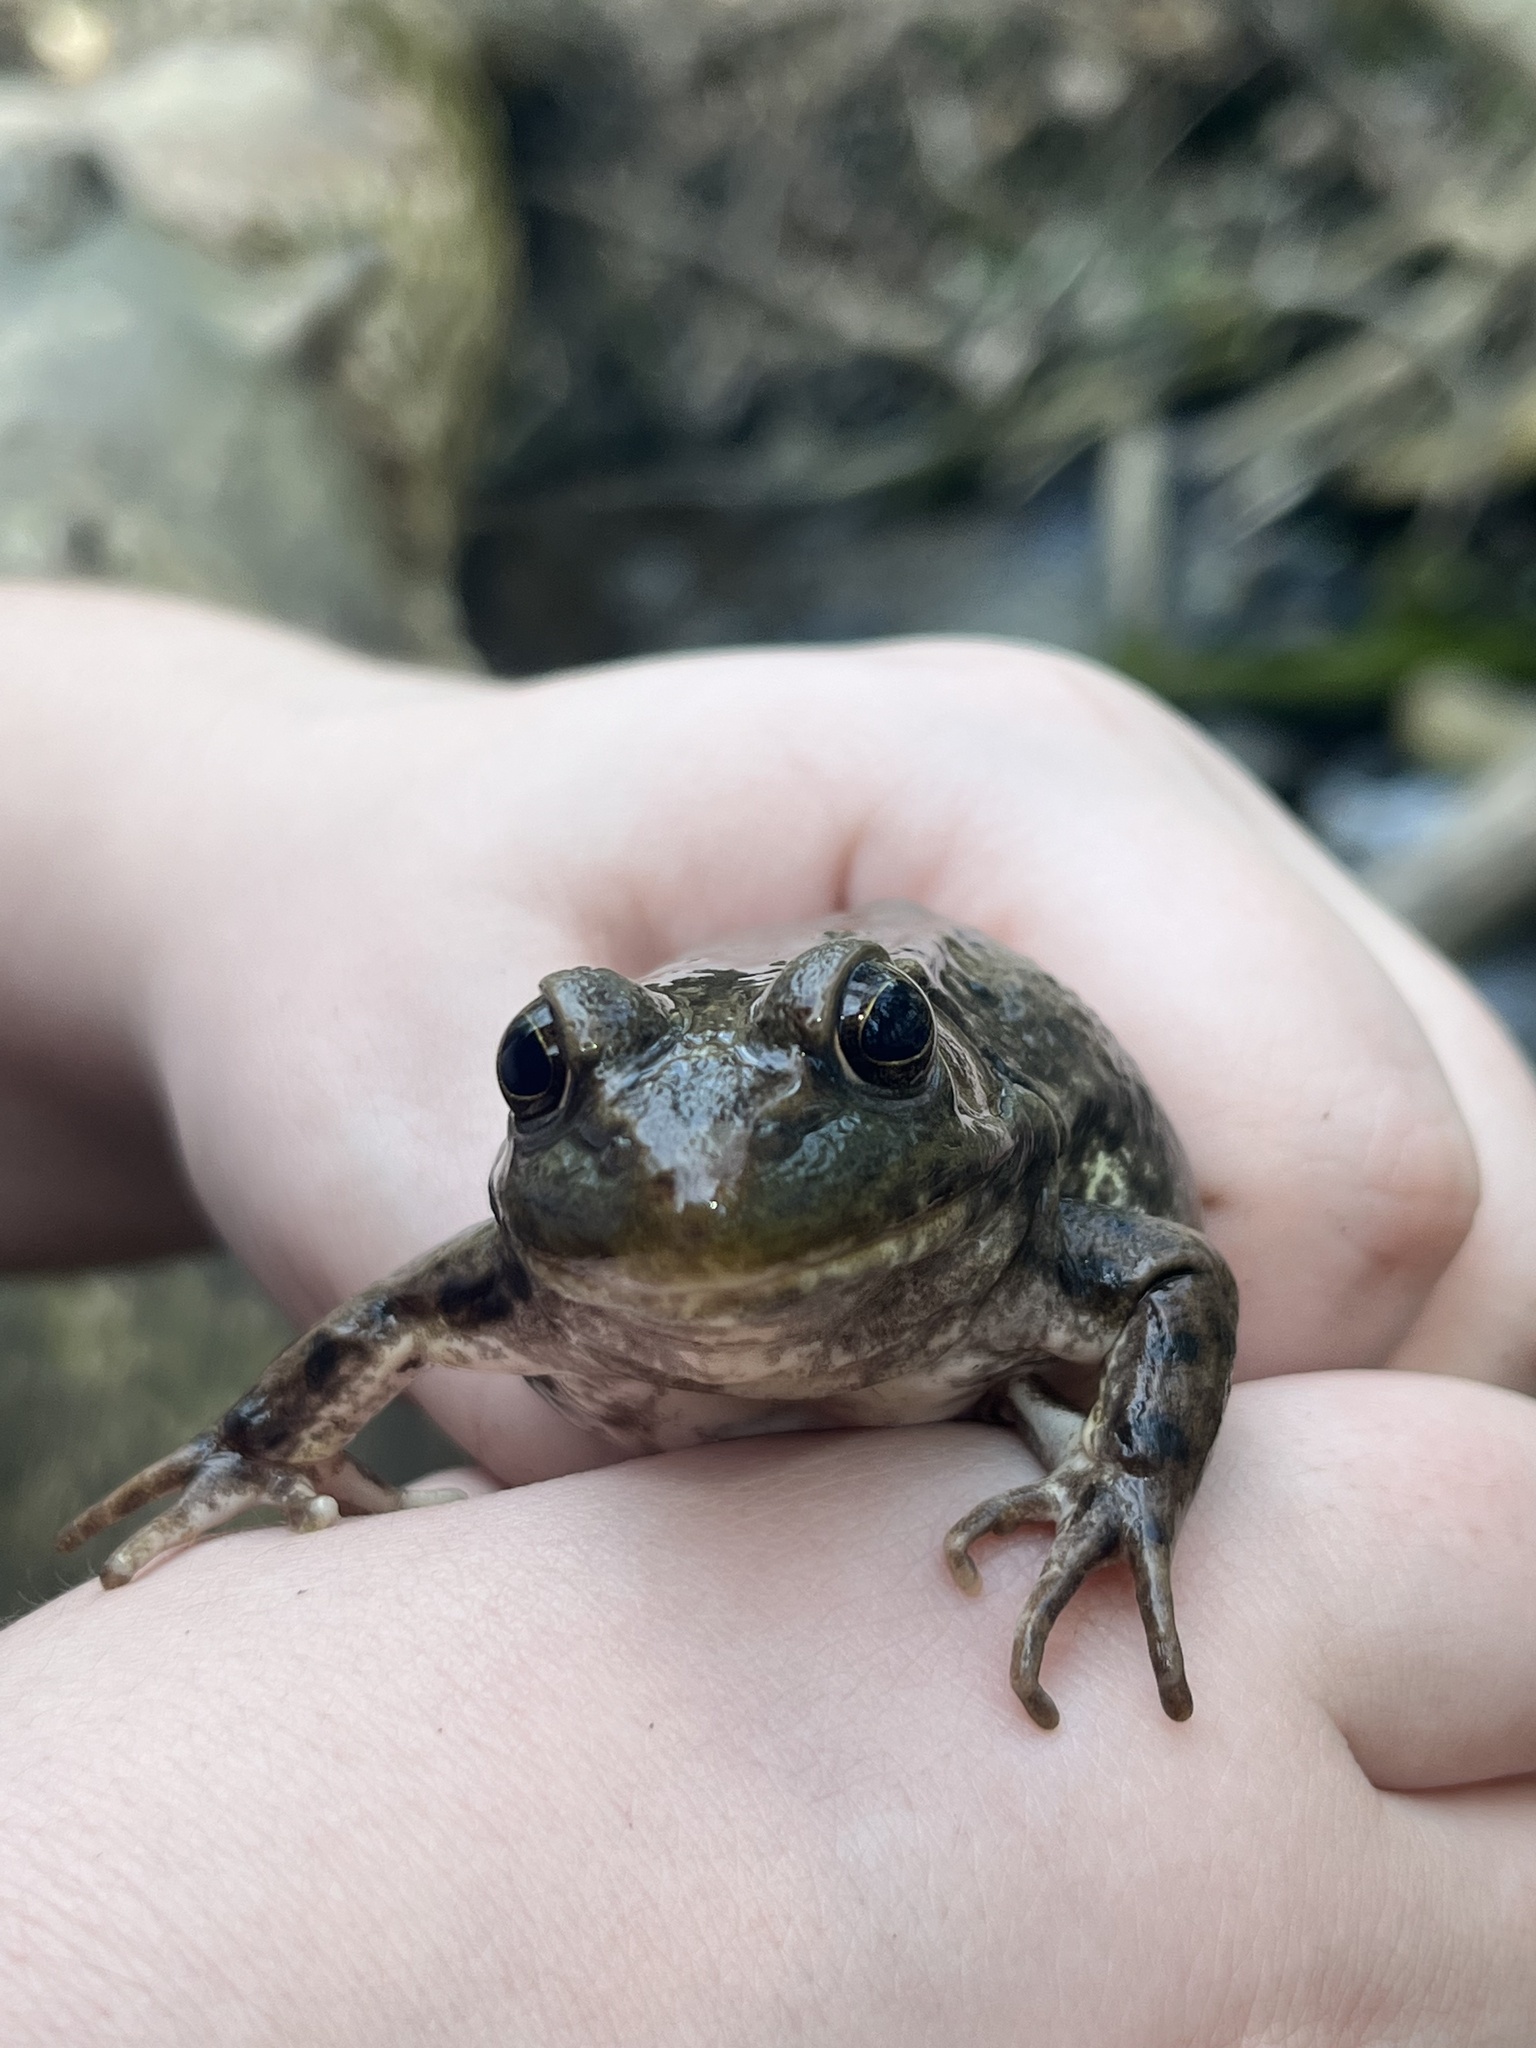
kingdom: Animalia
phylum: Chordata
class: Amphibia
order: Anura
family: Ranidae
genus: Lithobates
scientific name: Lithobates clamitans
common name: Green frog
